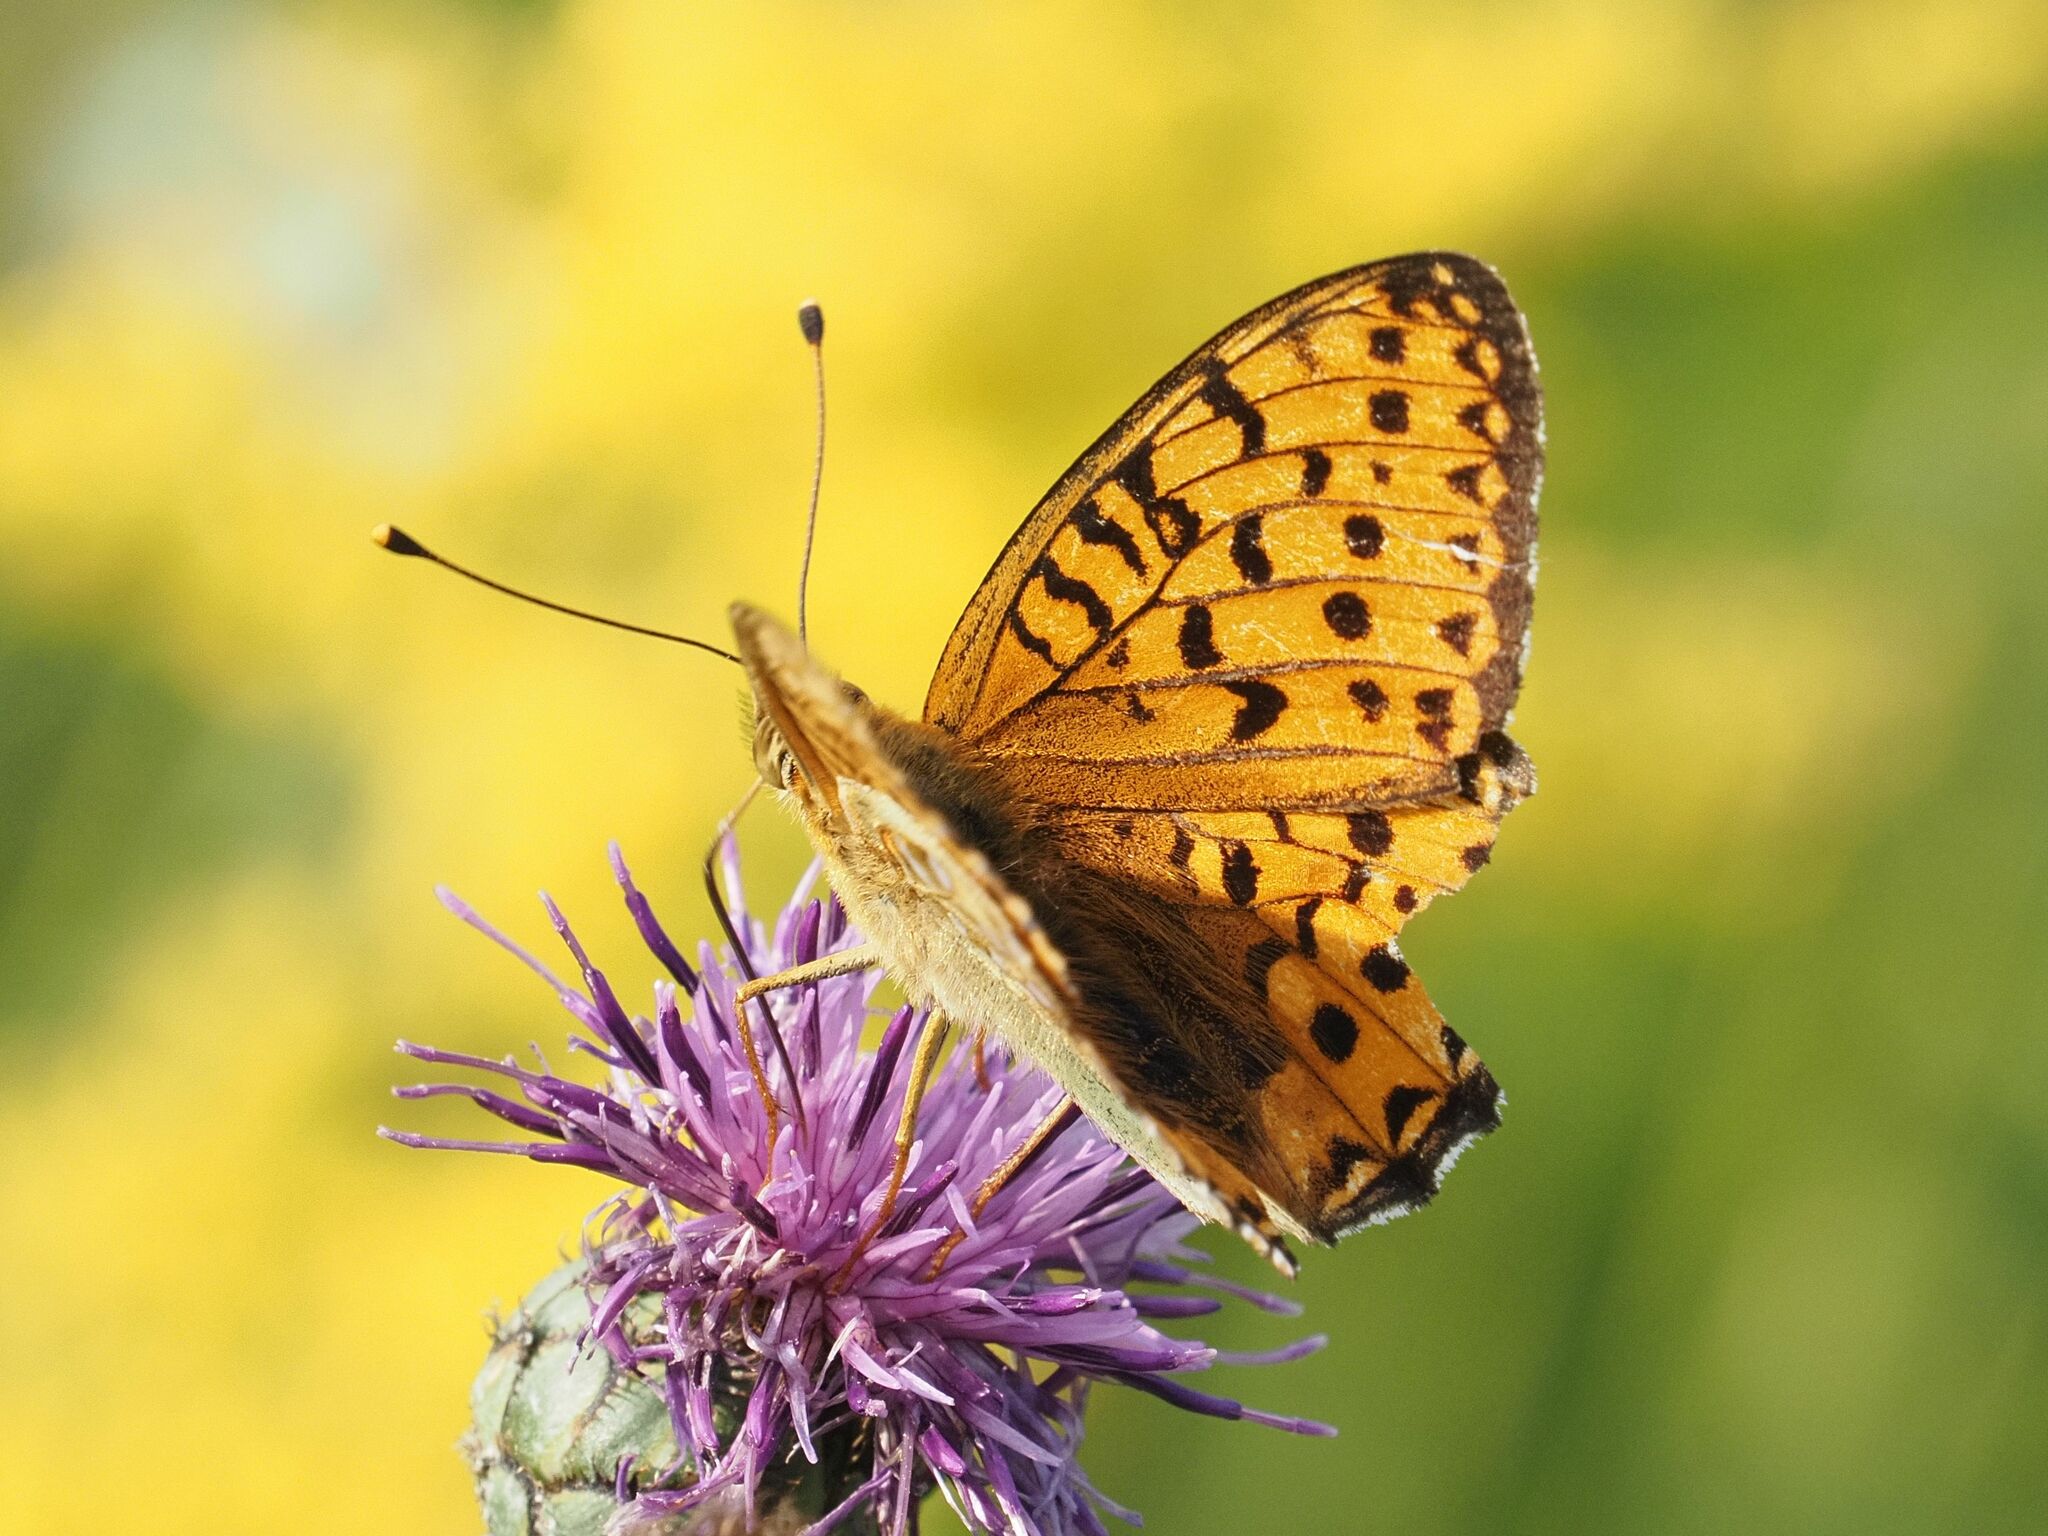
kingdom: Animalia
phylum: Arthropoda
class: Insecta
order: Lepidoptera
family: Nymphalidae
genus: Speyeria
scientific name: Speyeria aglaja
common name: Dark green fritillary
